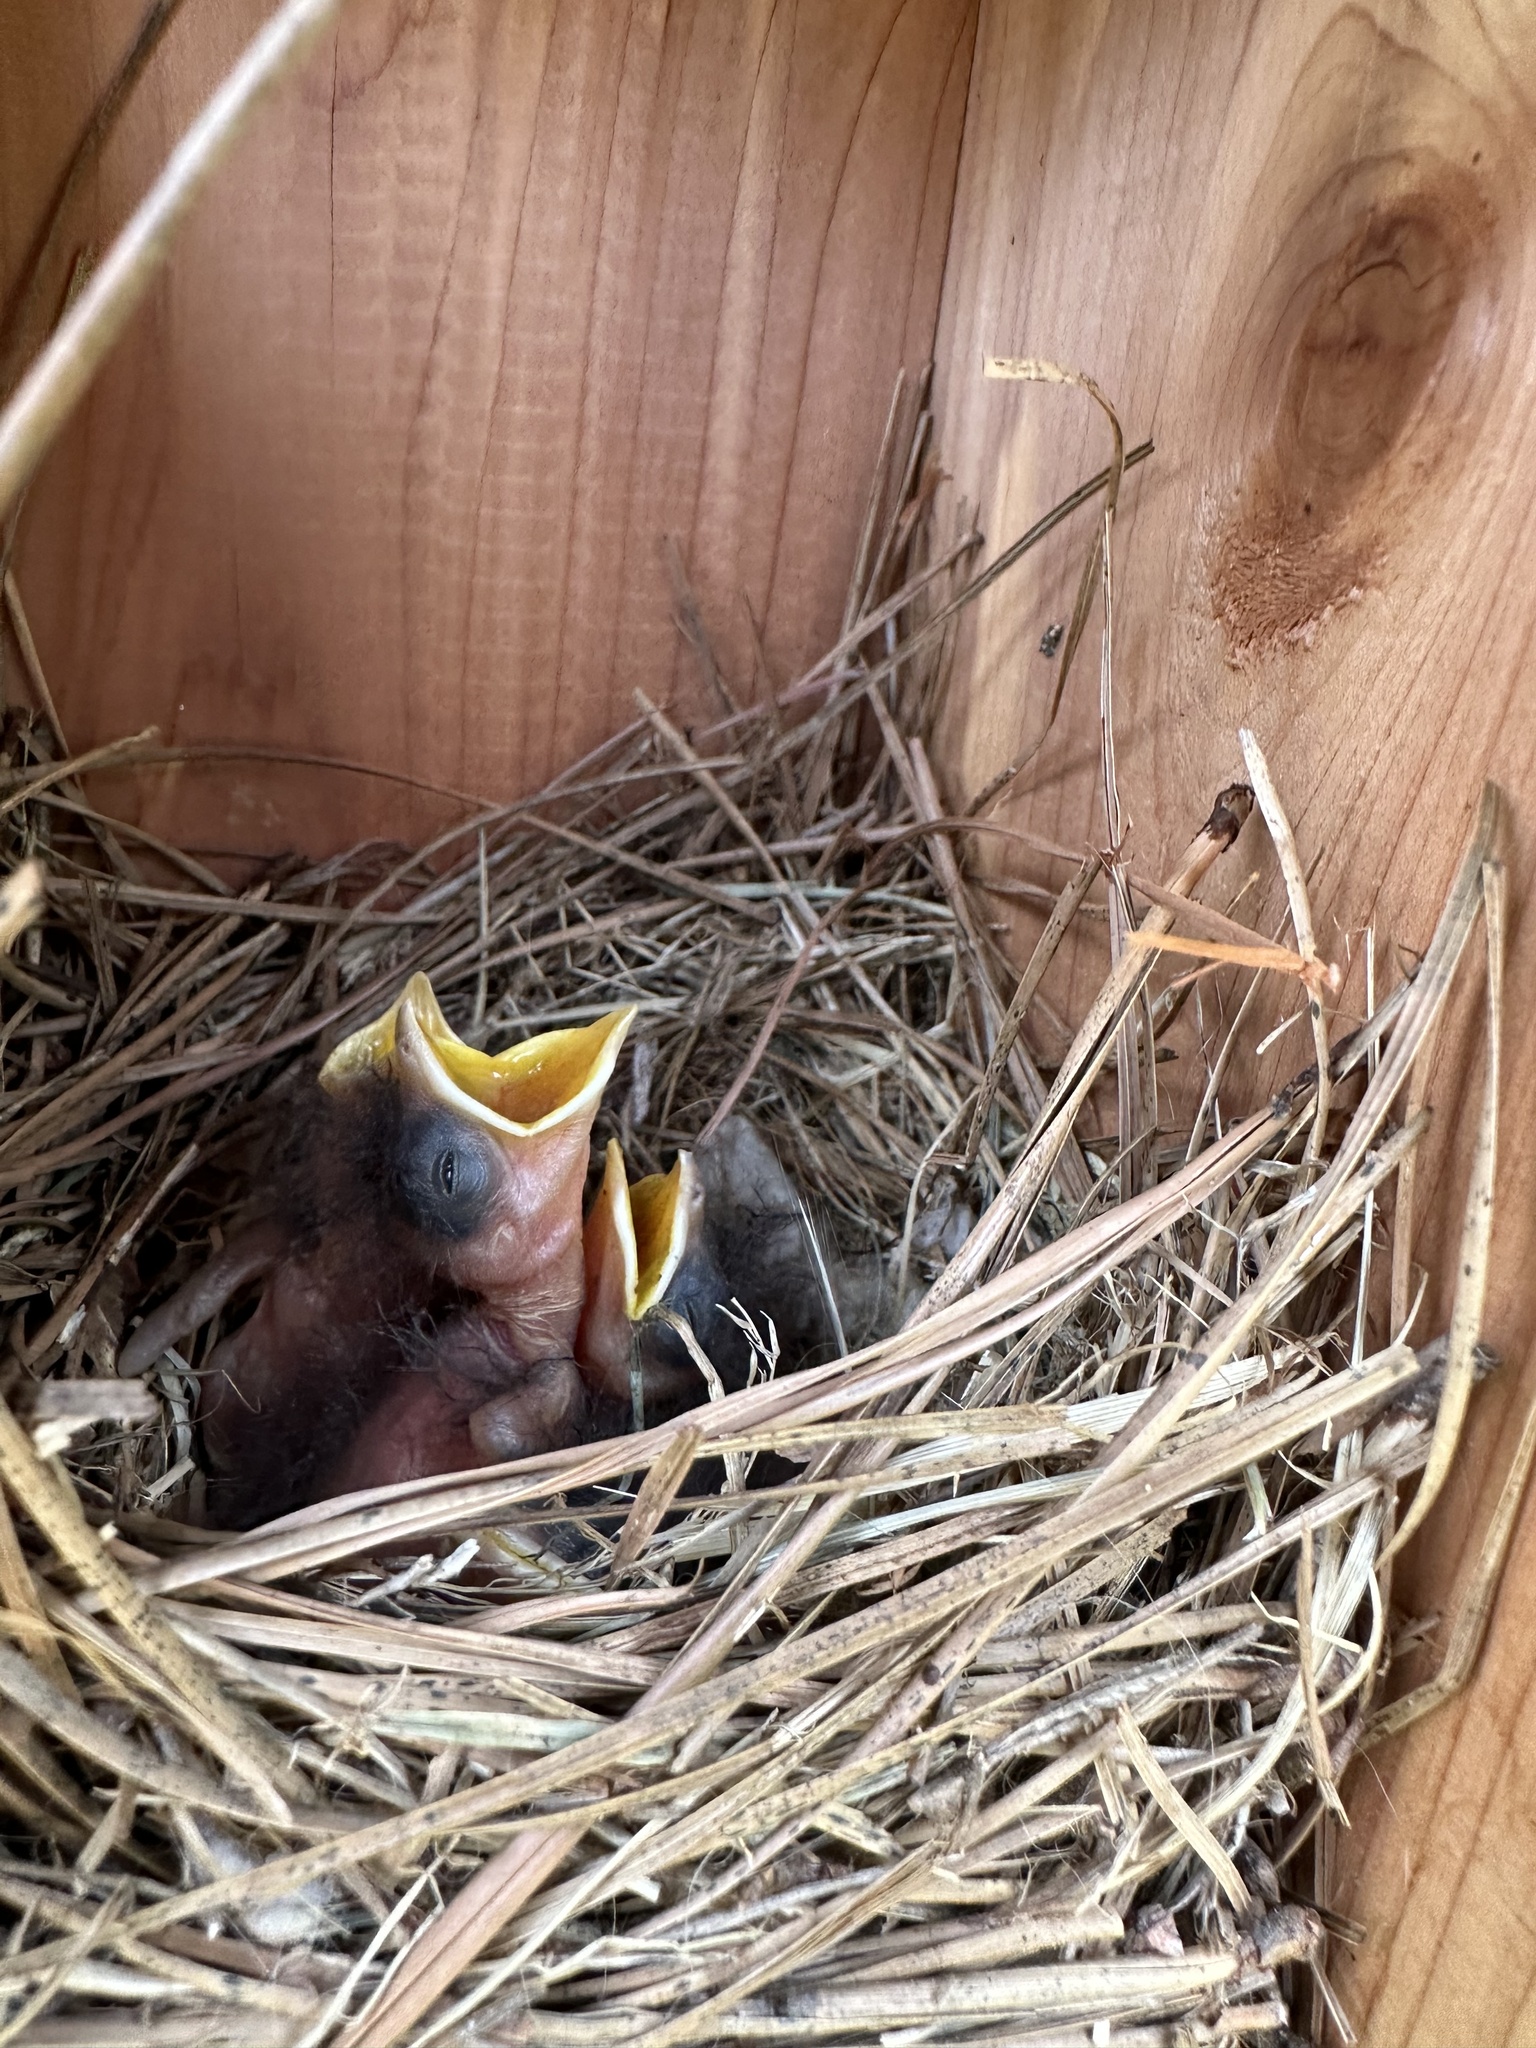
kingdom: Animalia
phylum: Chordata
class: Aves
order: Passeriformes
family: Turdidae
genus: Sialia
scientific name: Sialia sialis
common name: Eastern bluebird
